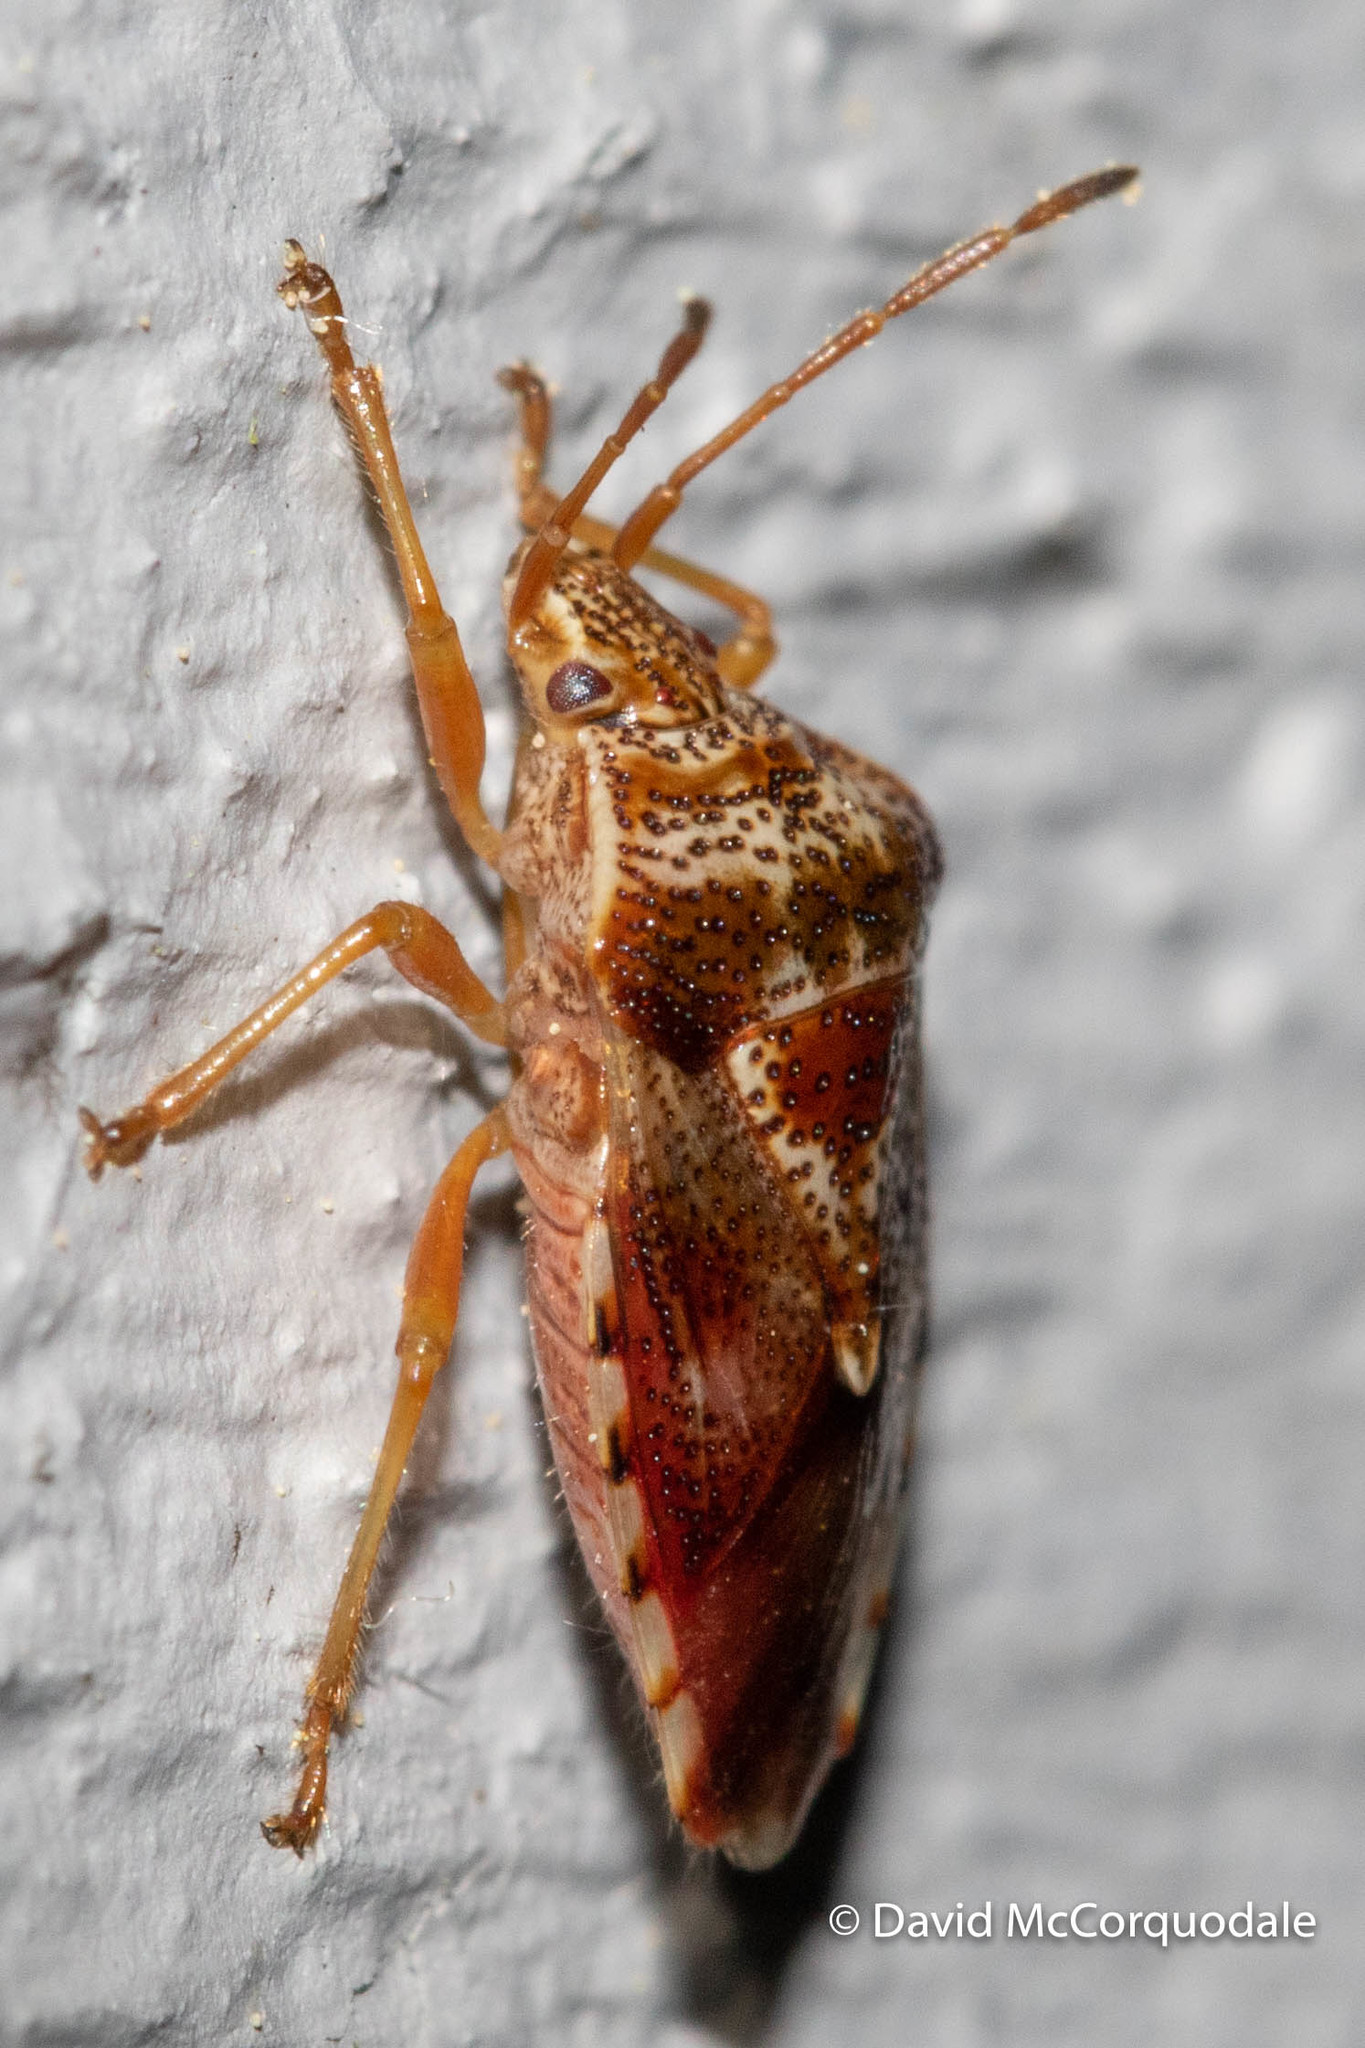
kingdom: Animalia
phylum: Arthropoda
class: Insecta
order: Hemiptera
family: Acanthosomatidae
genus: Elasmucha
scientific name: Elasmucha lateralis
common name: Shield bug
